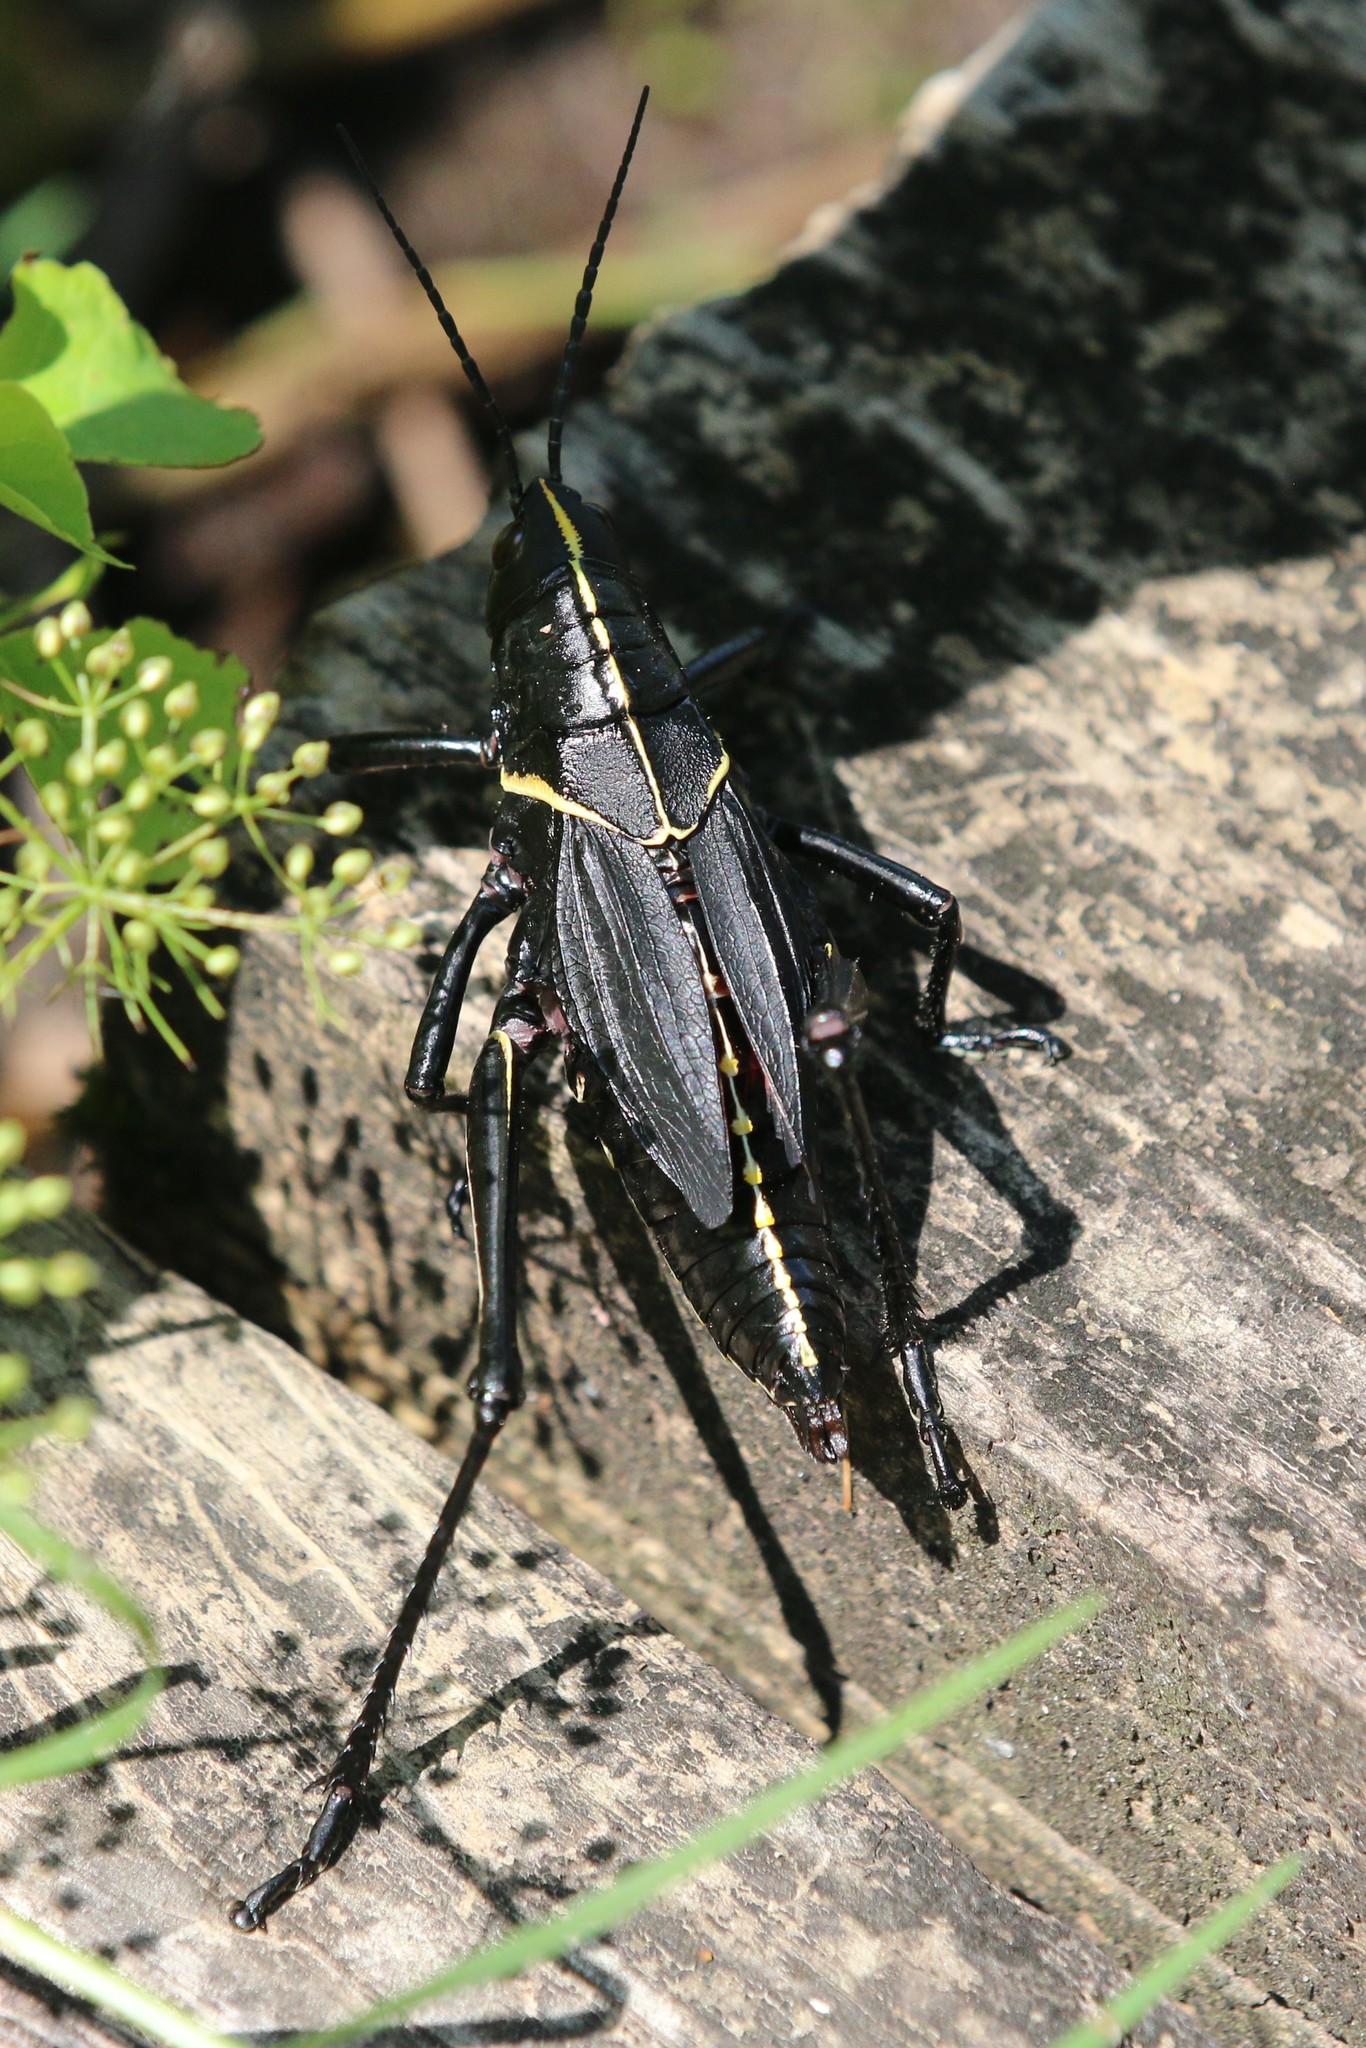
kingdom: Animalia
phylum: Arthropoda
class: Insecta
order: Orthoptera
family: Romaleidae
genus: Romalea
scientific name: Romalea microptera
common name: Eastern lubber grasshopper
